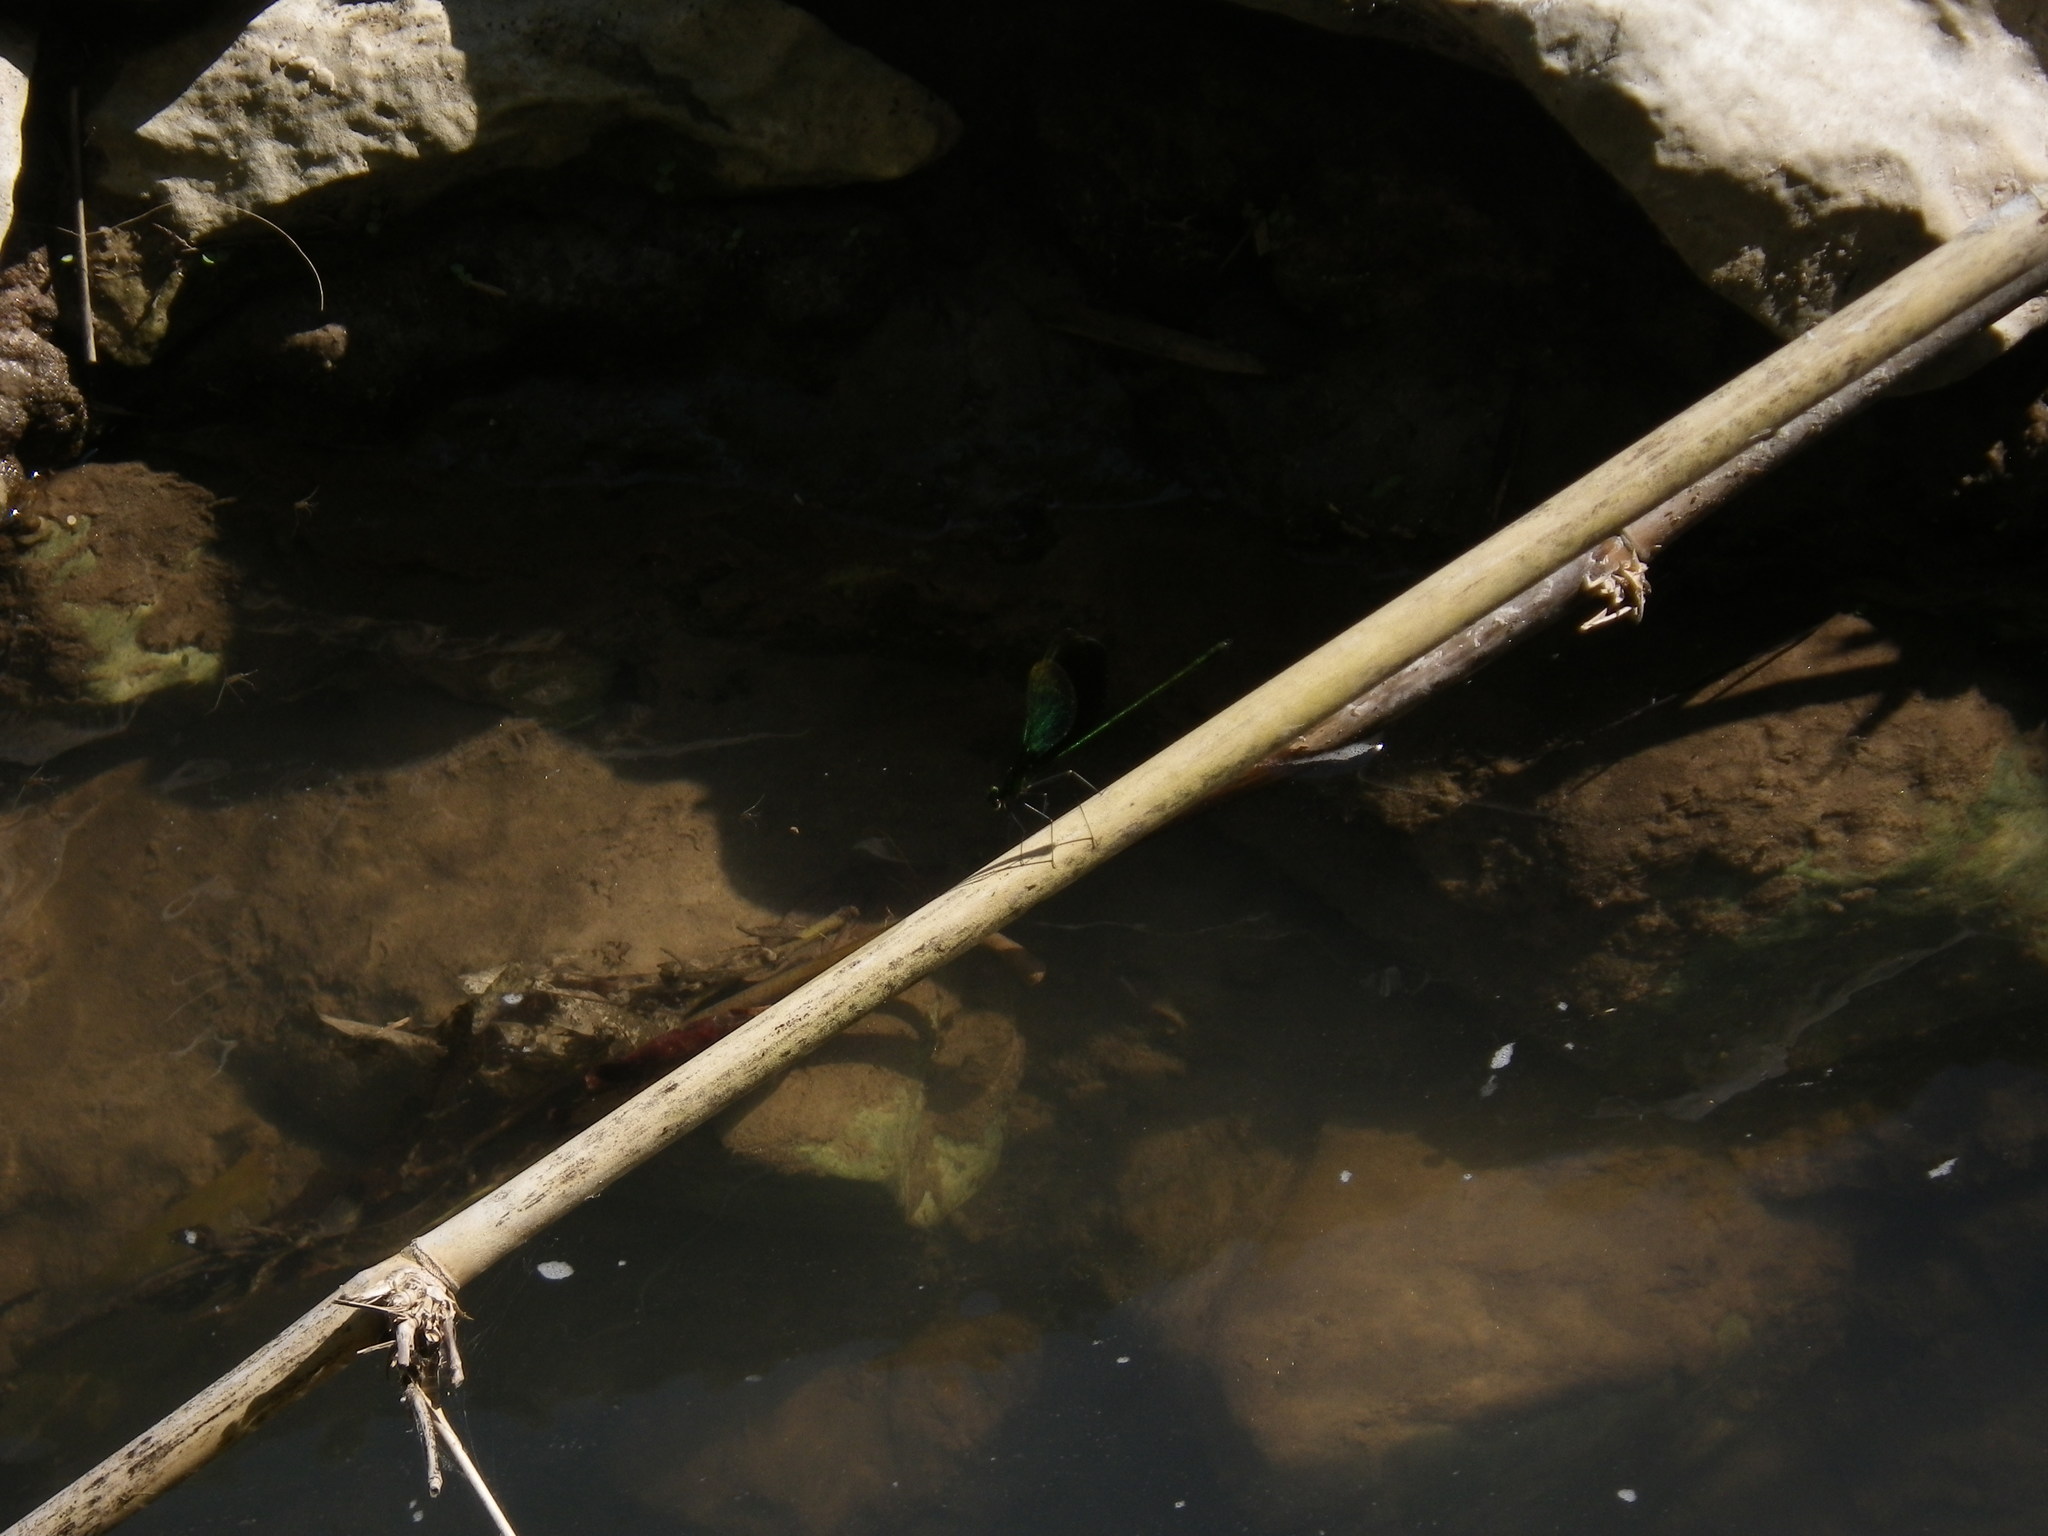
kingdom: Animalia
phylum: Arthropoda
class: Insecta
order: Odonata
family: Calopterygidae
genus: Neurobasis
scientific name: Neurobasis chinensis
